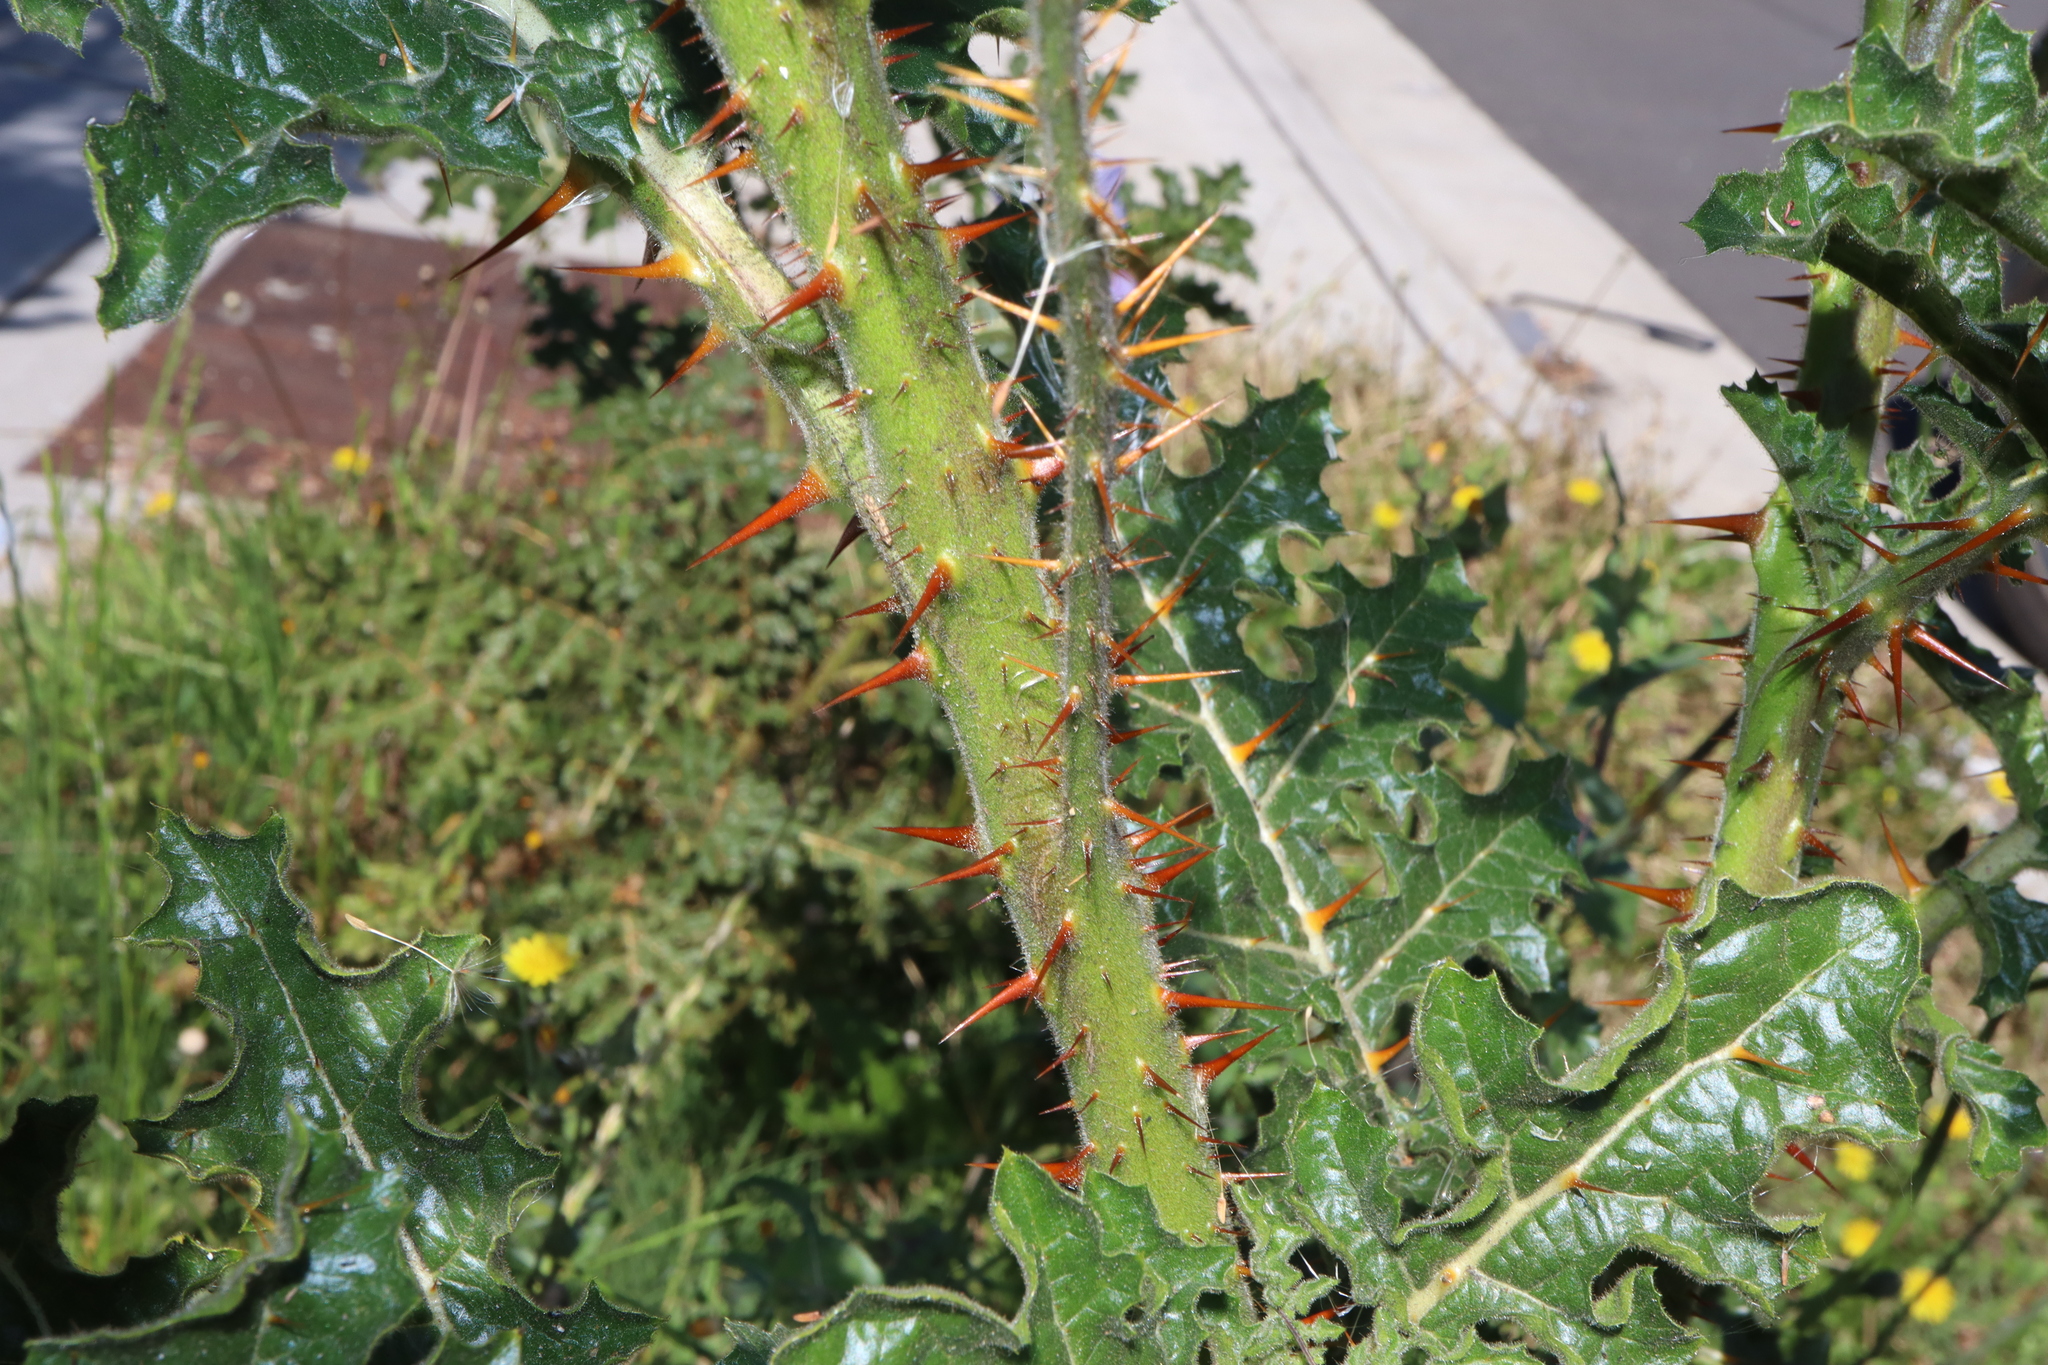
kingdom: Plantae
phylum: Tracheophyta
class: Magnoliopsida
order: Solanales
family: Solanaceae
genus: Solanum
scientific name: Solanum sisymbriifolium
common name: Red buffalo-bur
